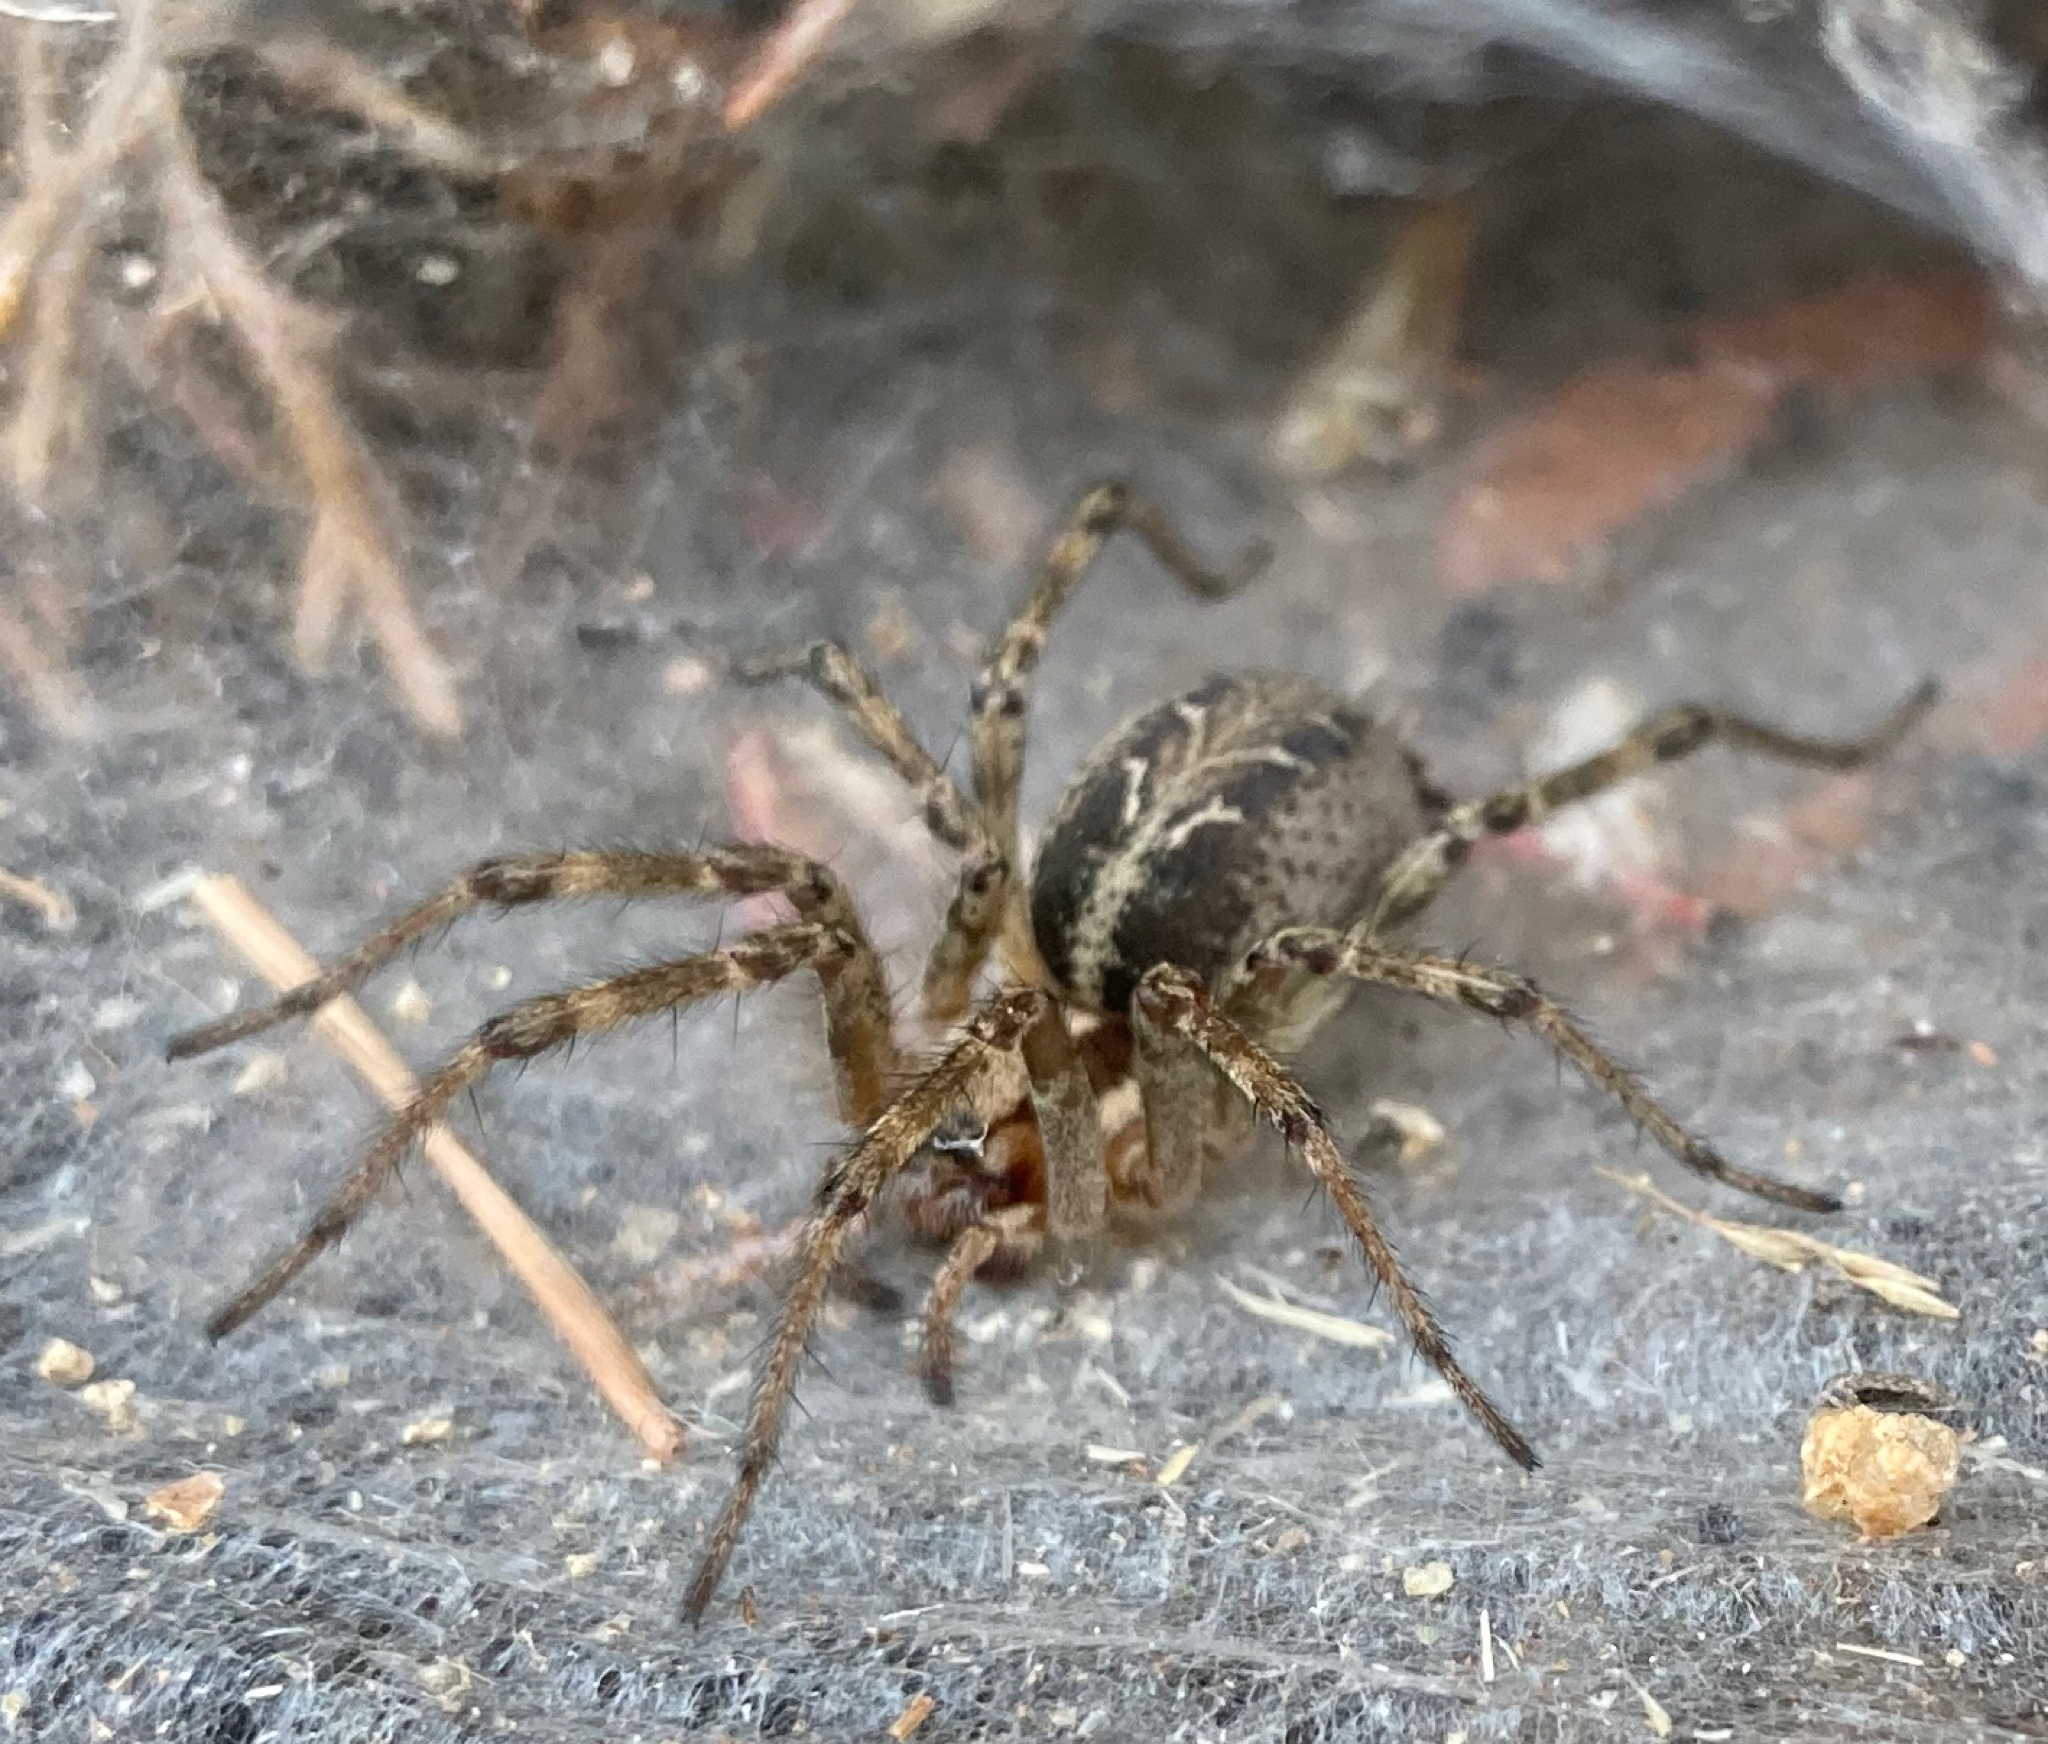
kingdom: Animalia
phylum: Arthropoda
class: Arachnida
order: Araneae
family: Agelenidae
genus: Agelena
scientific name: Agelena labyrinthica
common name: Labyrinth spider
